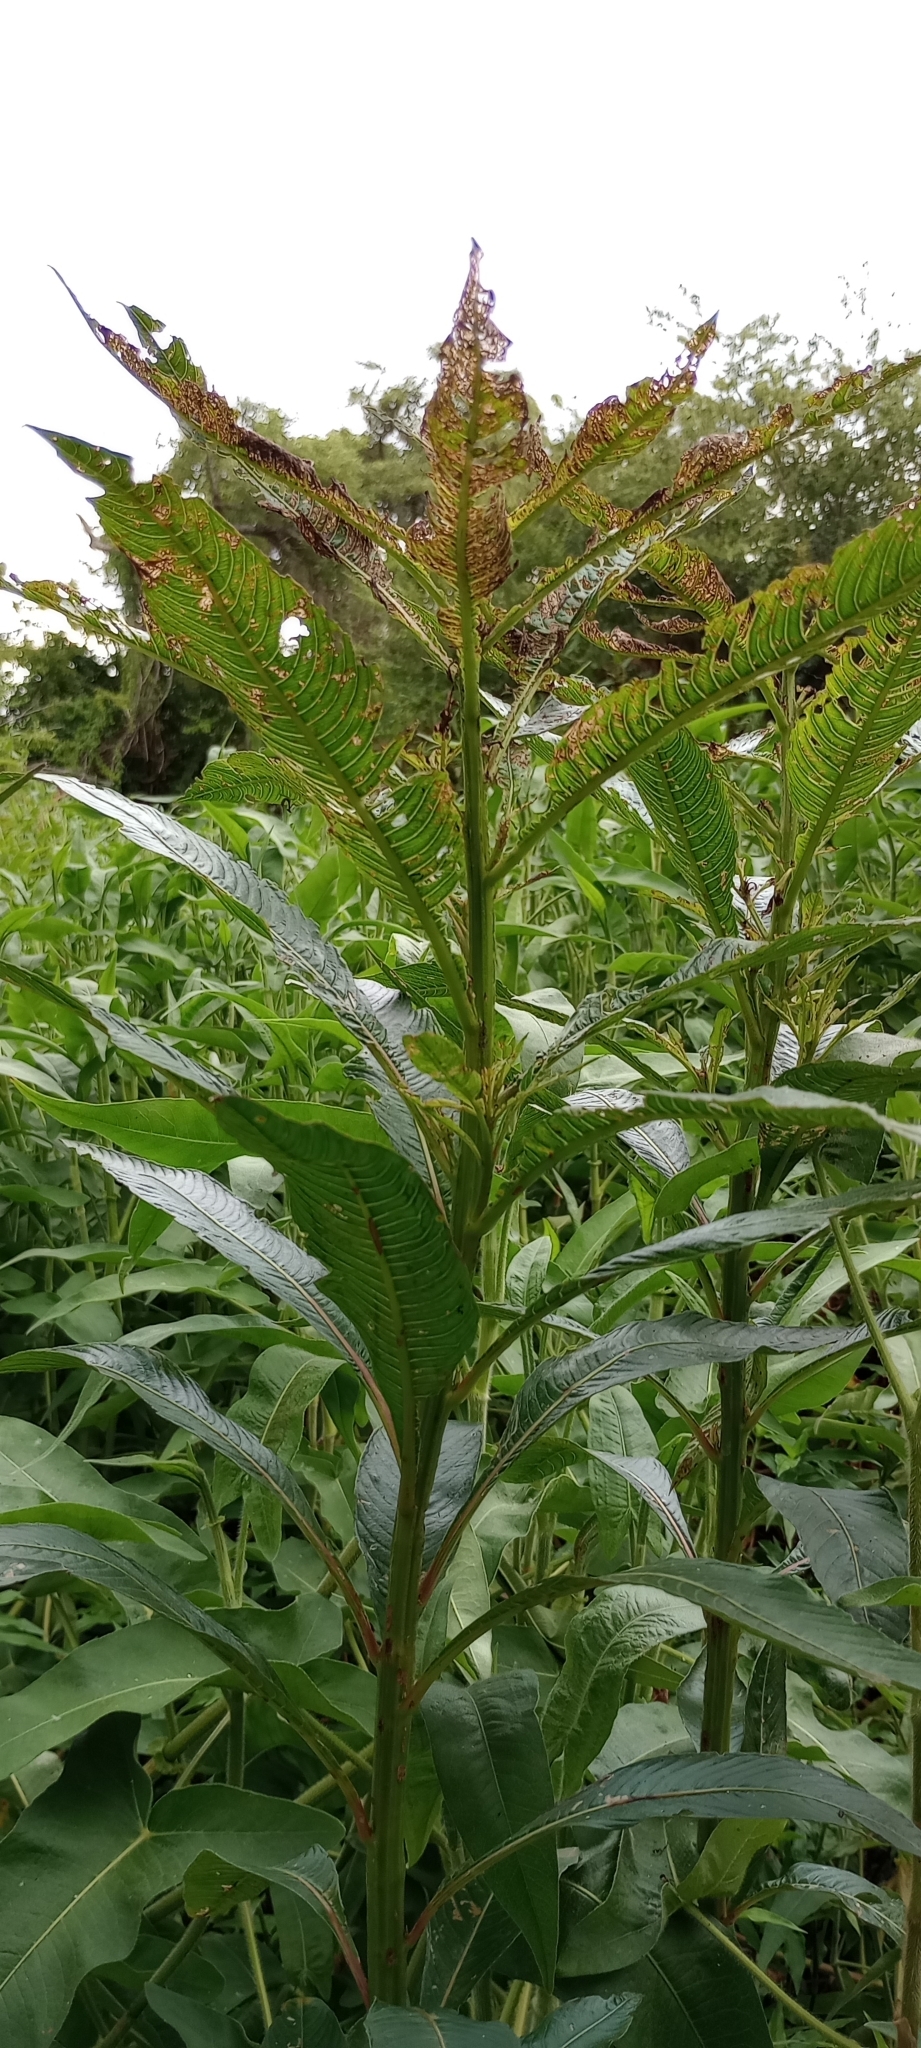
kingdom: Plantae
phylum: Tracheophyta
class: Magnoliopsida
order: Myrtales
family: Onagraceae
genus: Ludwigia
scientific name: Ludwigia elegans
